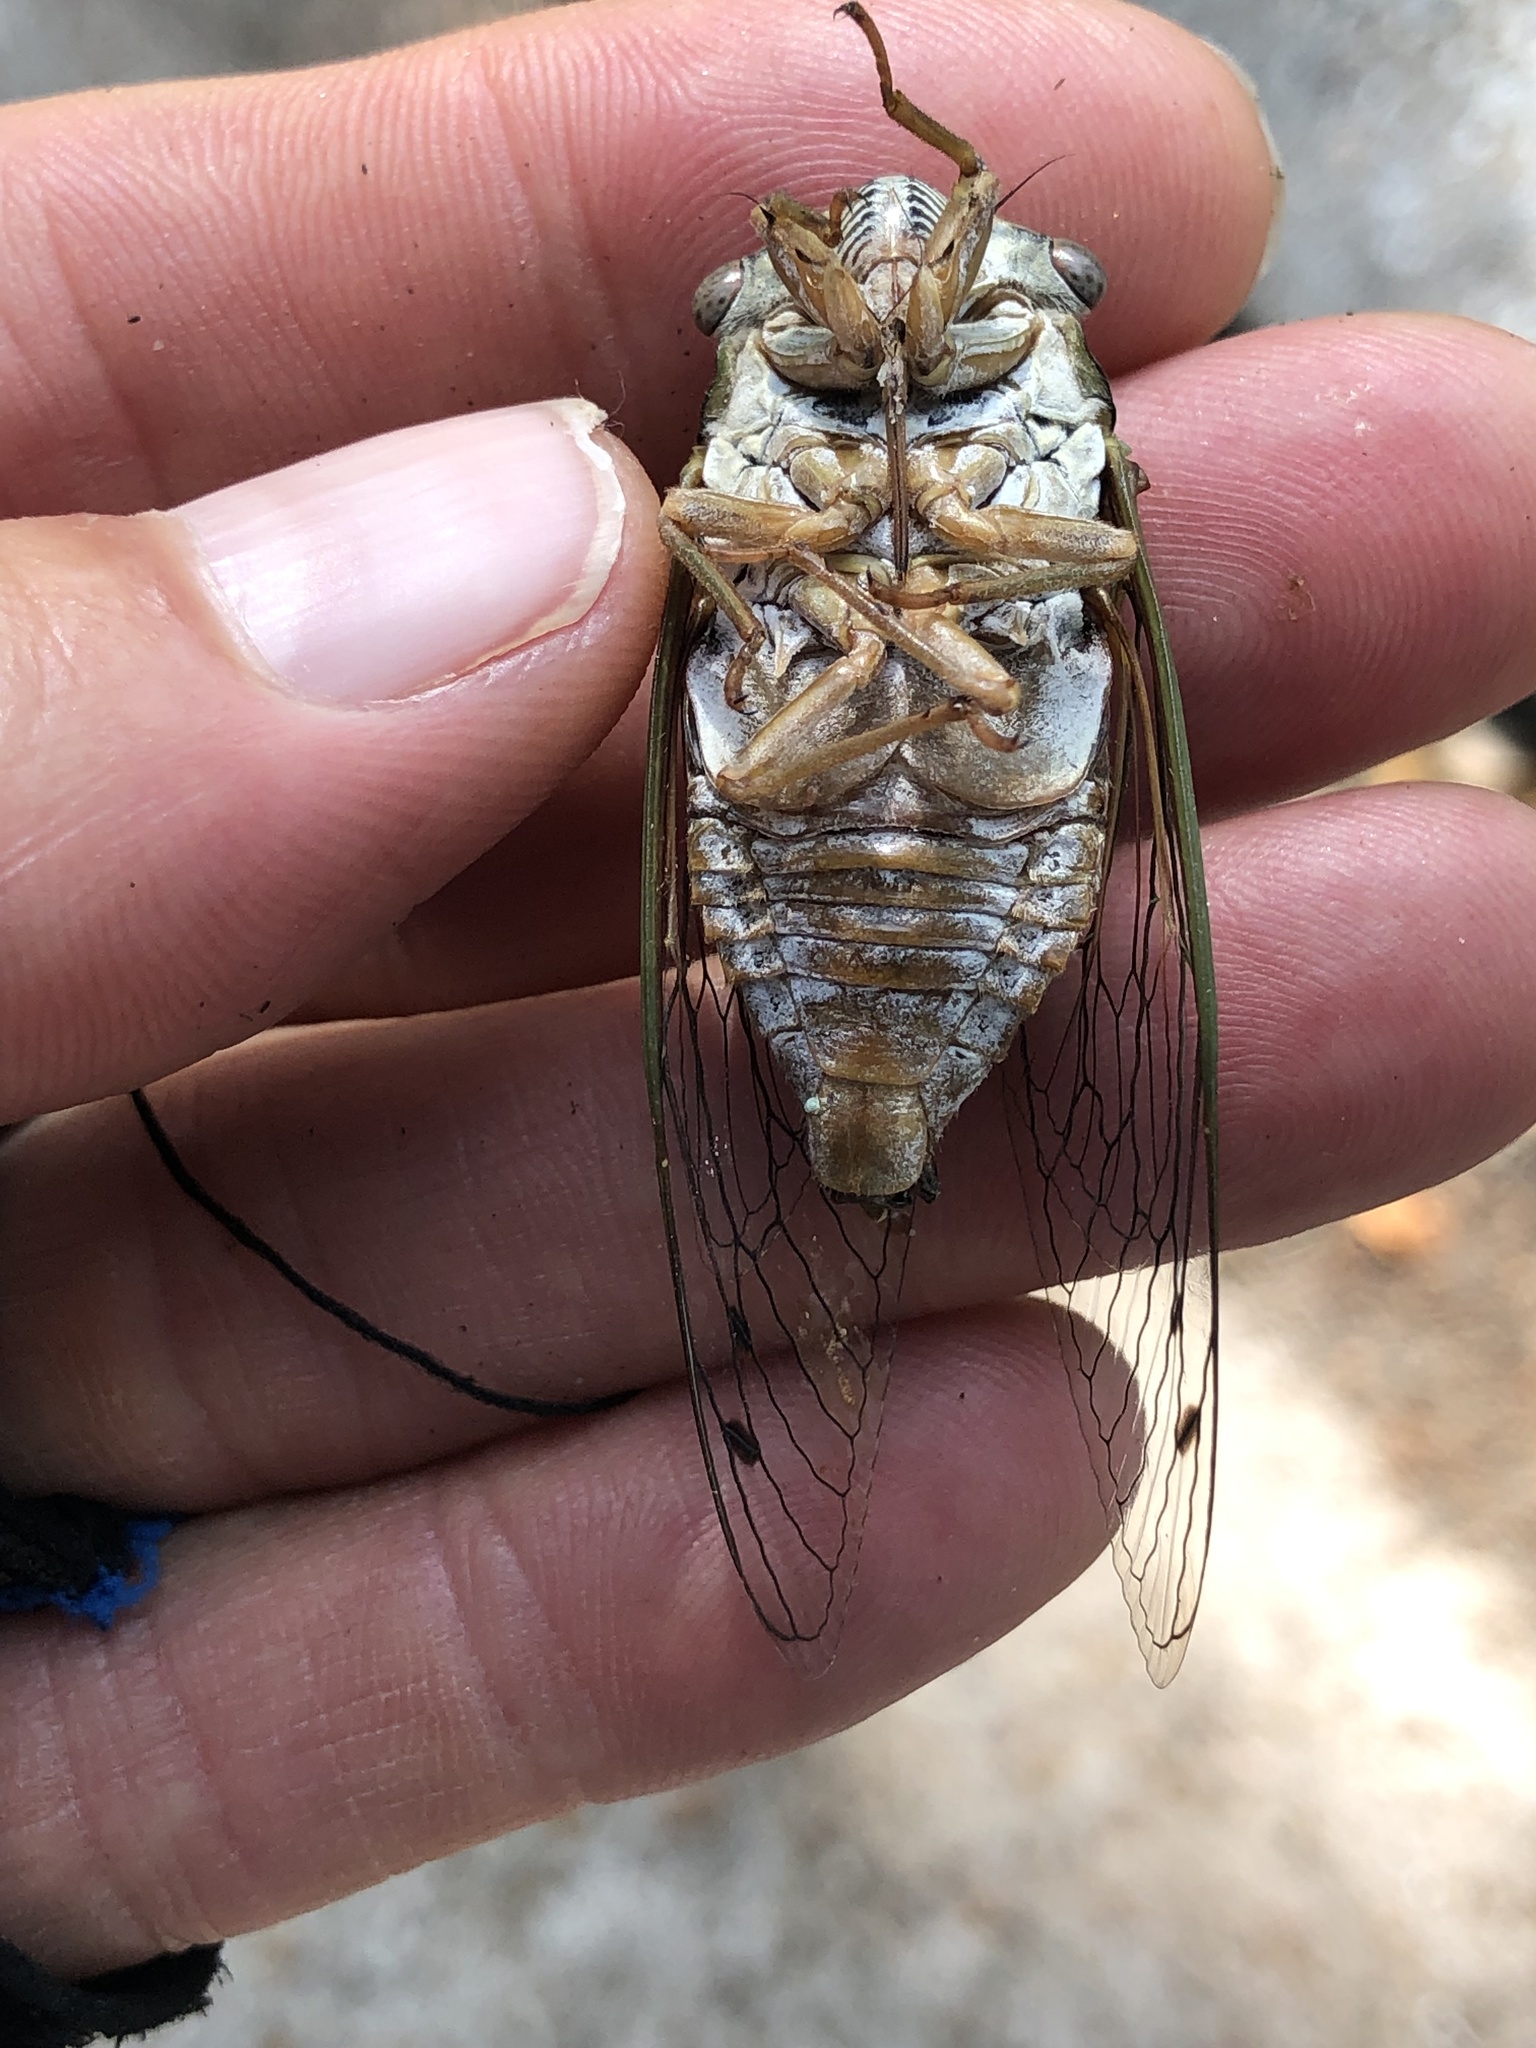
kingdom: Animalia
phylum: Arthropoda
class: Insecta
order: Hemiptera
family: Cicadidae
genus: Megatibicen
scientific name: Megatibicen resh
